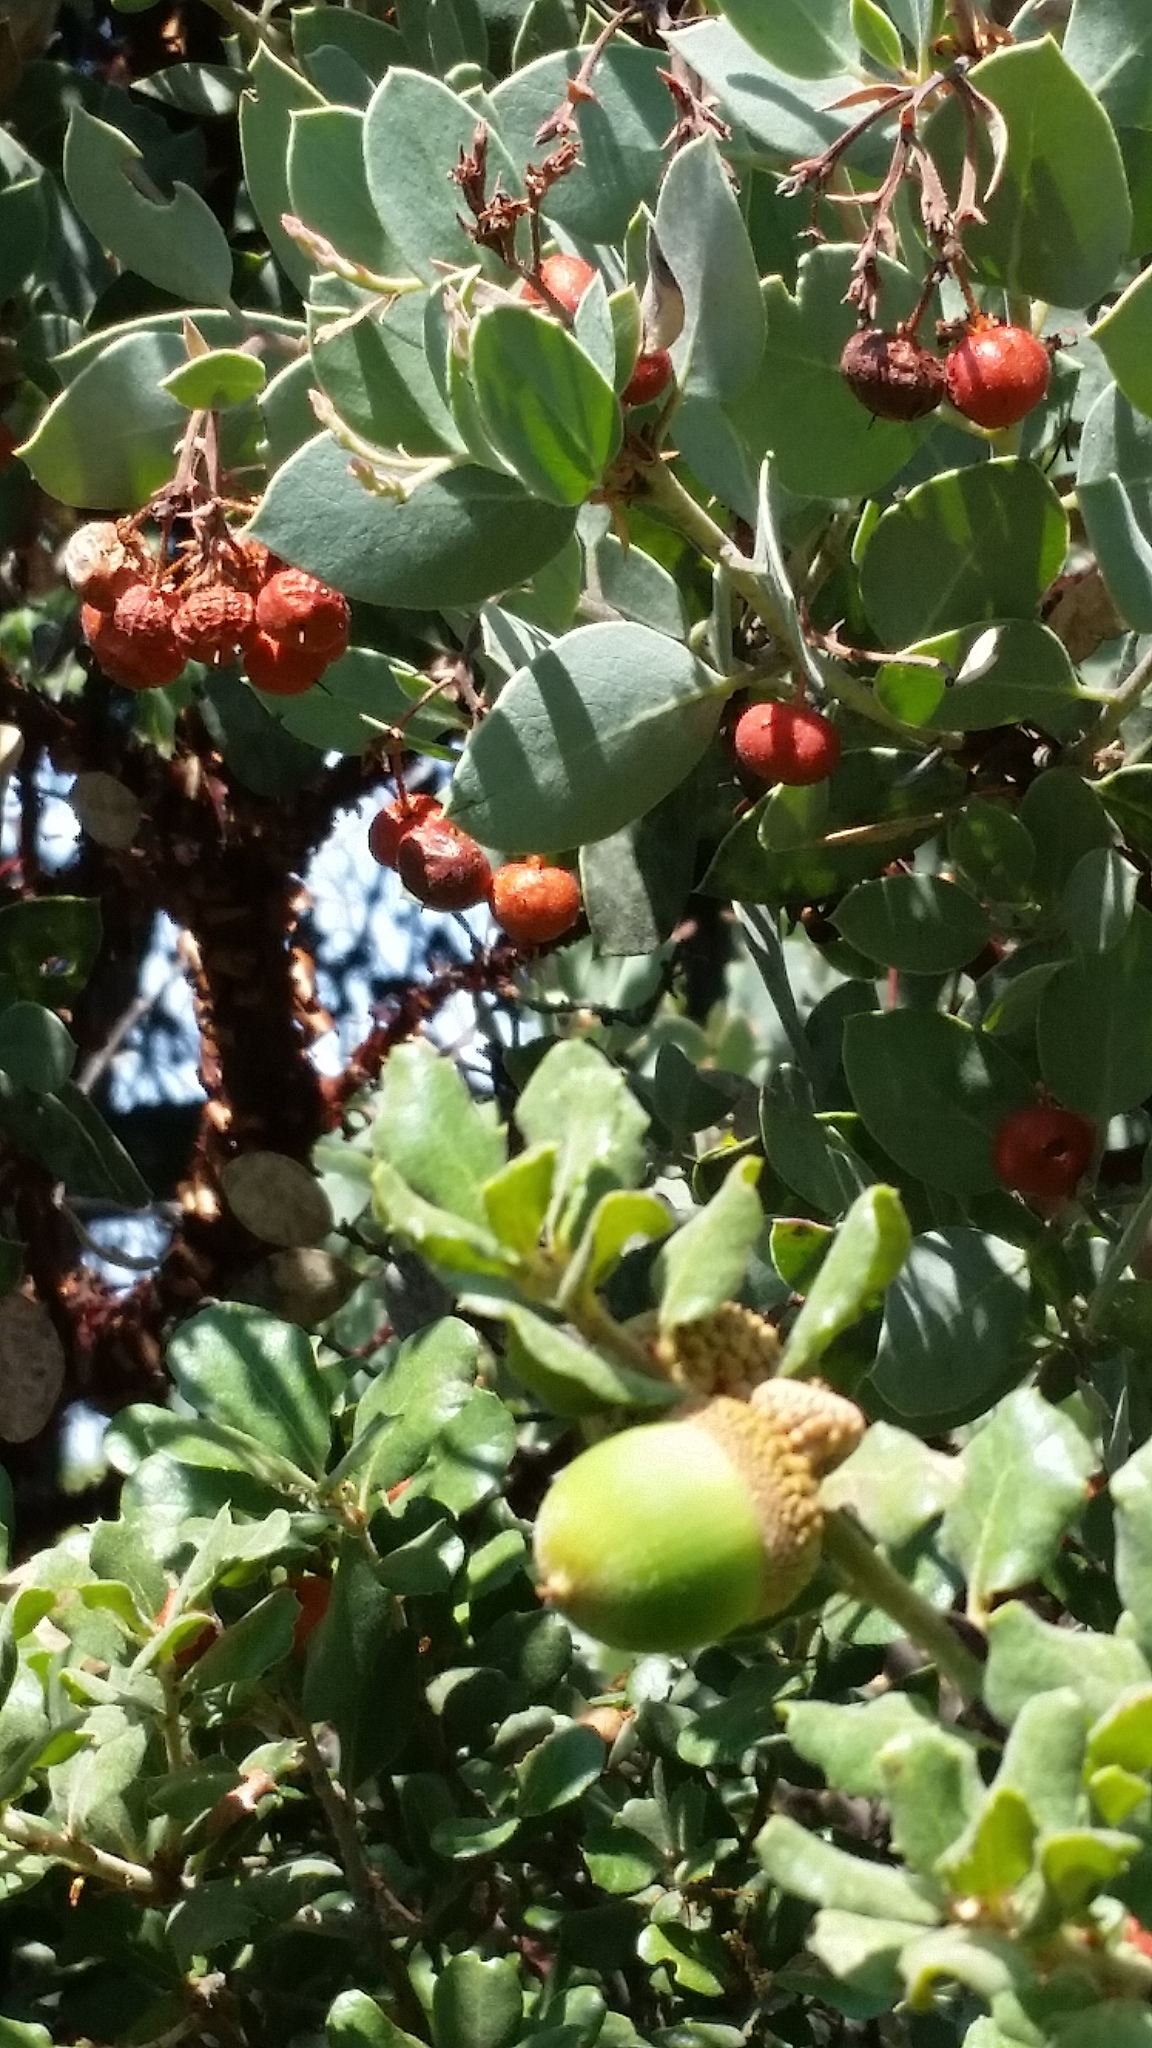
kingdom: Plantae
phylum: Tracheophyta
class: Magnoliopsida
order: Ericales
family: Ericaceae
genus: Arctostaphylos
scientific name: Arctostaphylos viscida
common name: White-leaf manzanita
